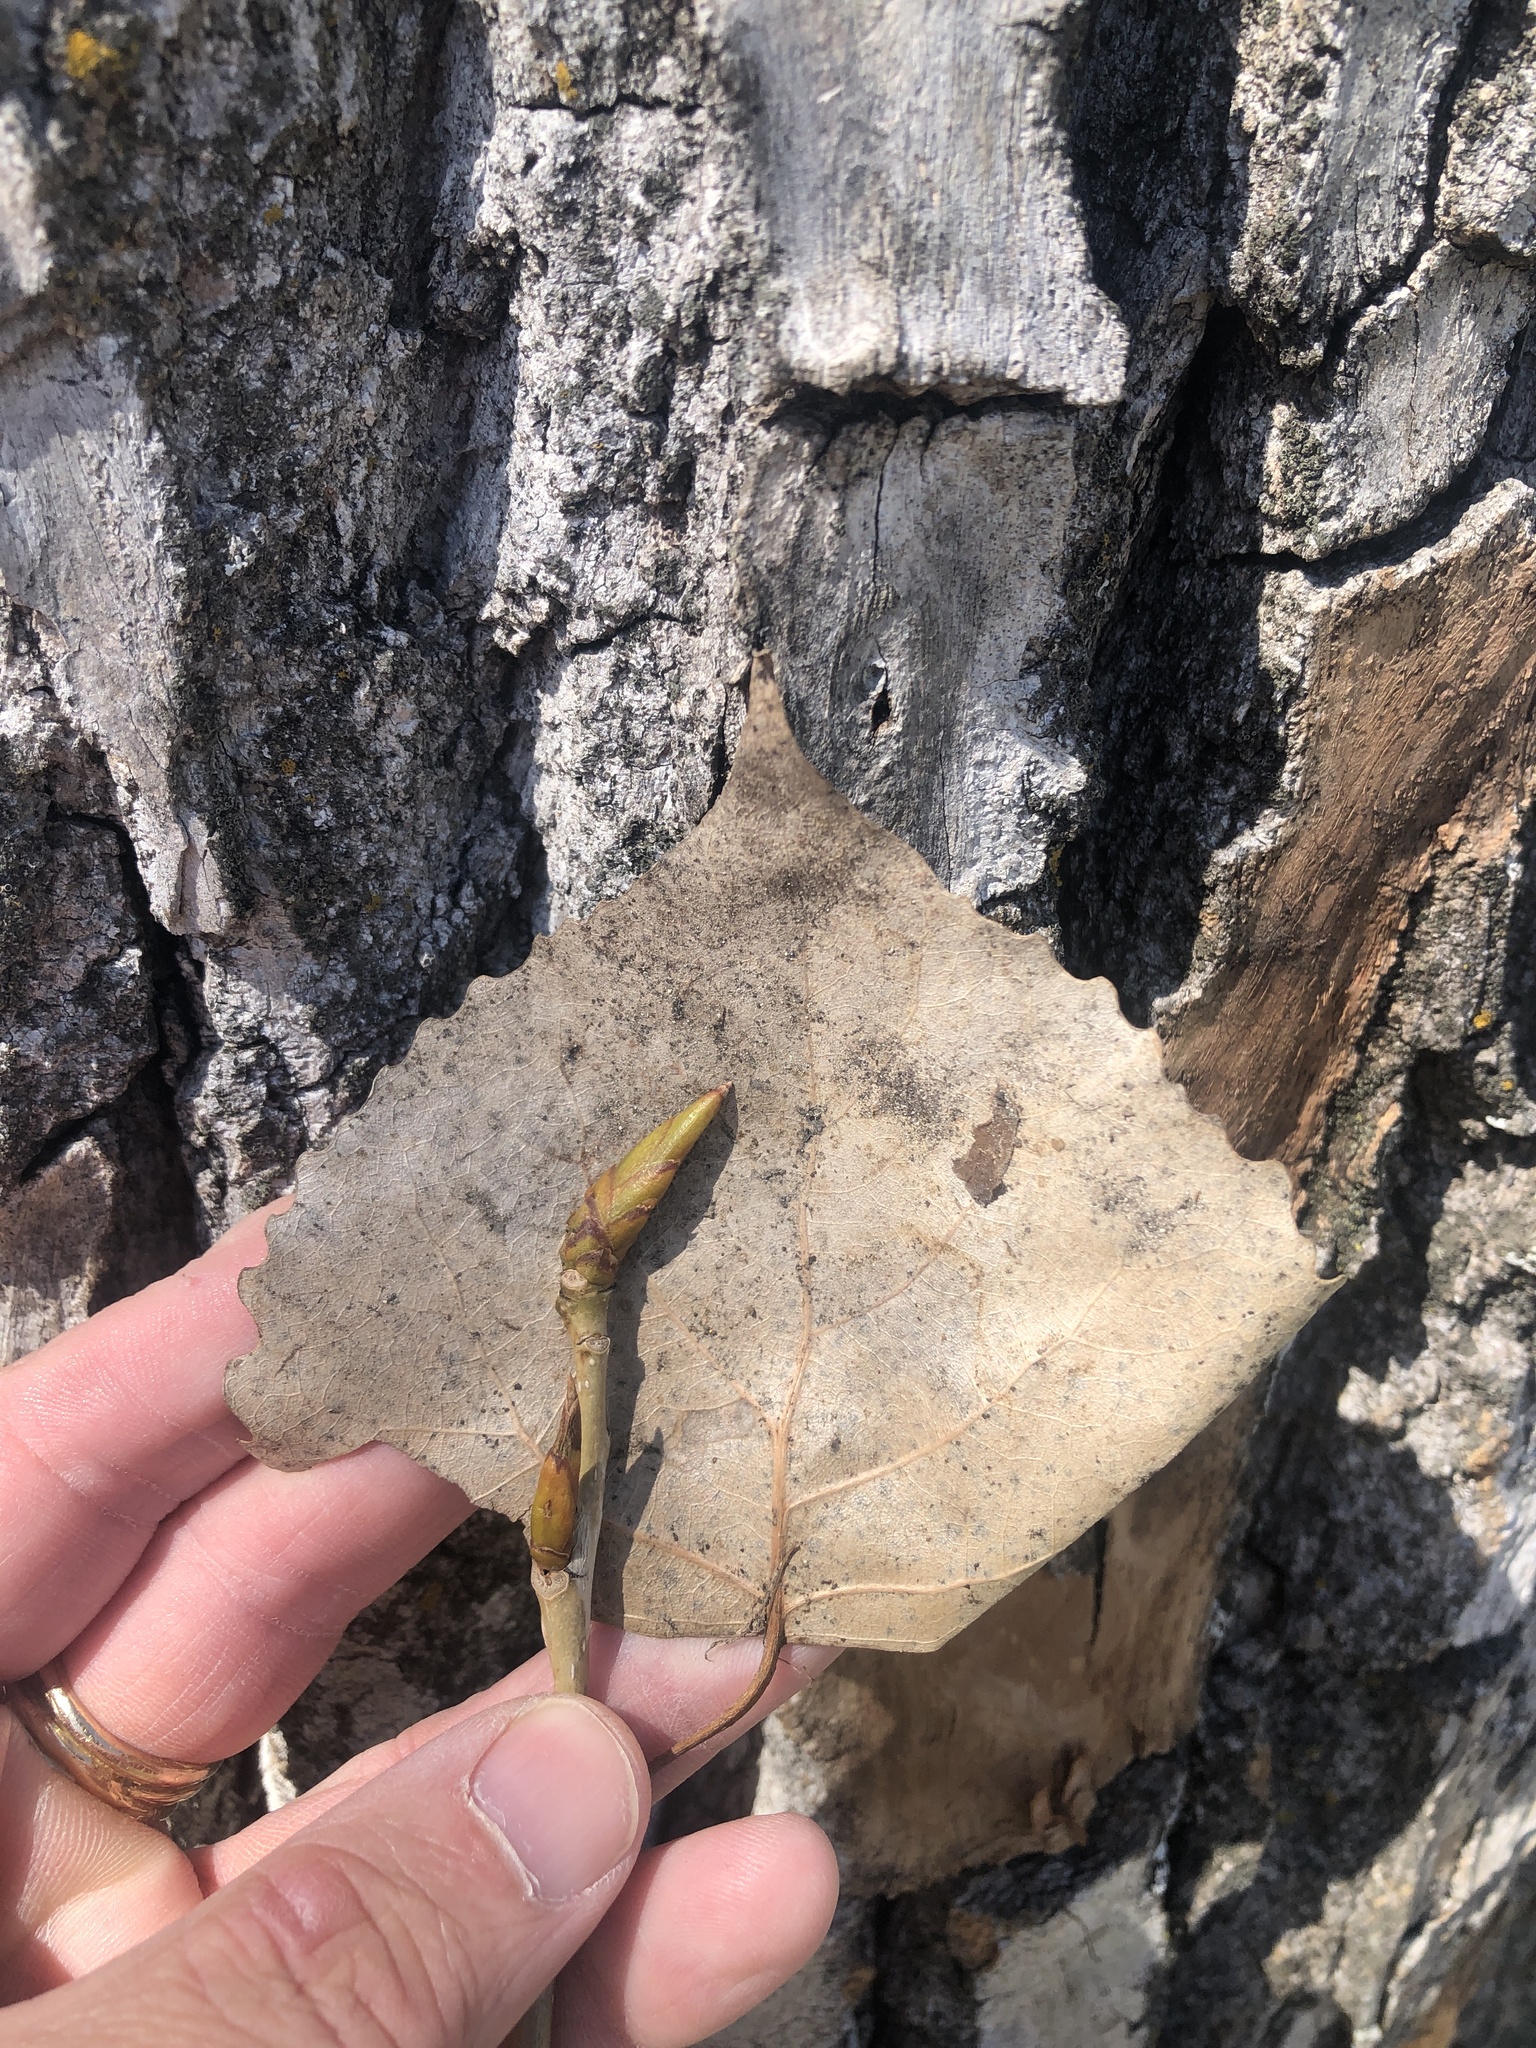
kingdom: Plantae
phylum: Tracheophyta
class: Magnoliopsida
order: Malpighiales
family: Salicaceae
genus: Populus
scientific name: Populus deltoides
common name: Eastern cottonwood
